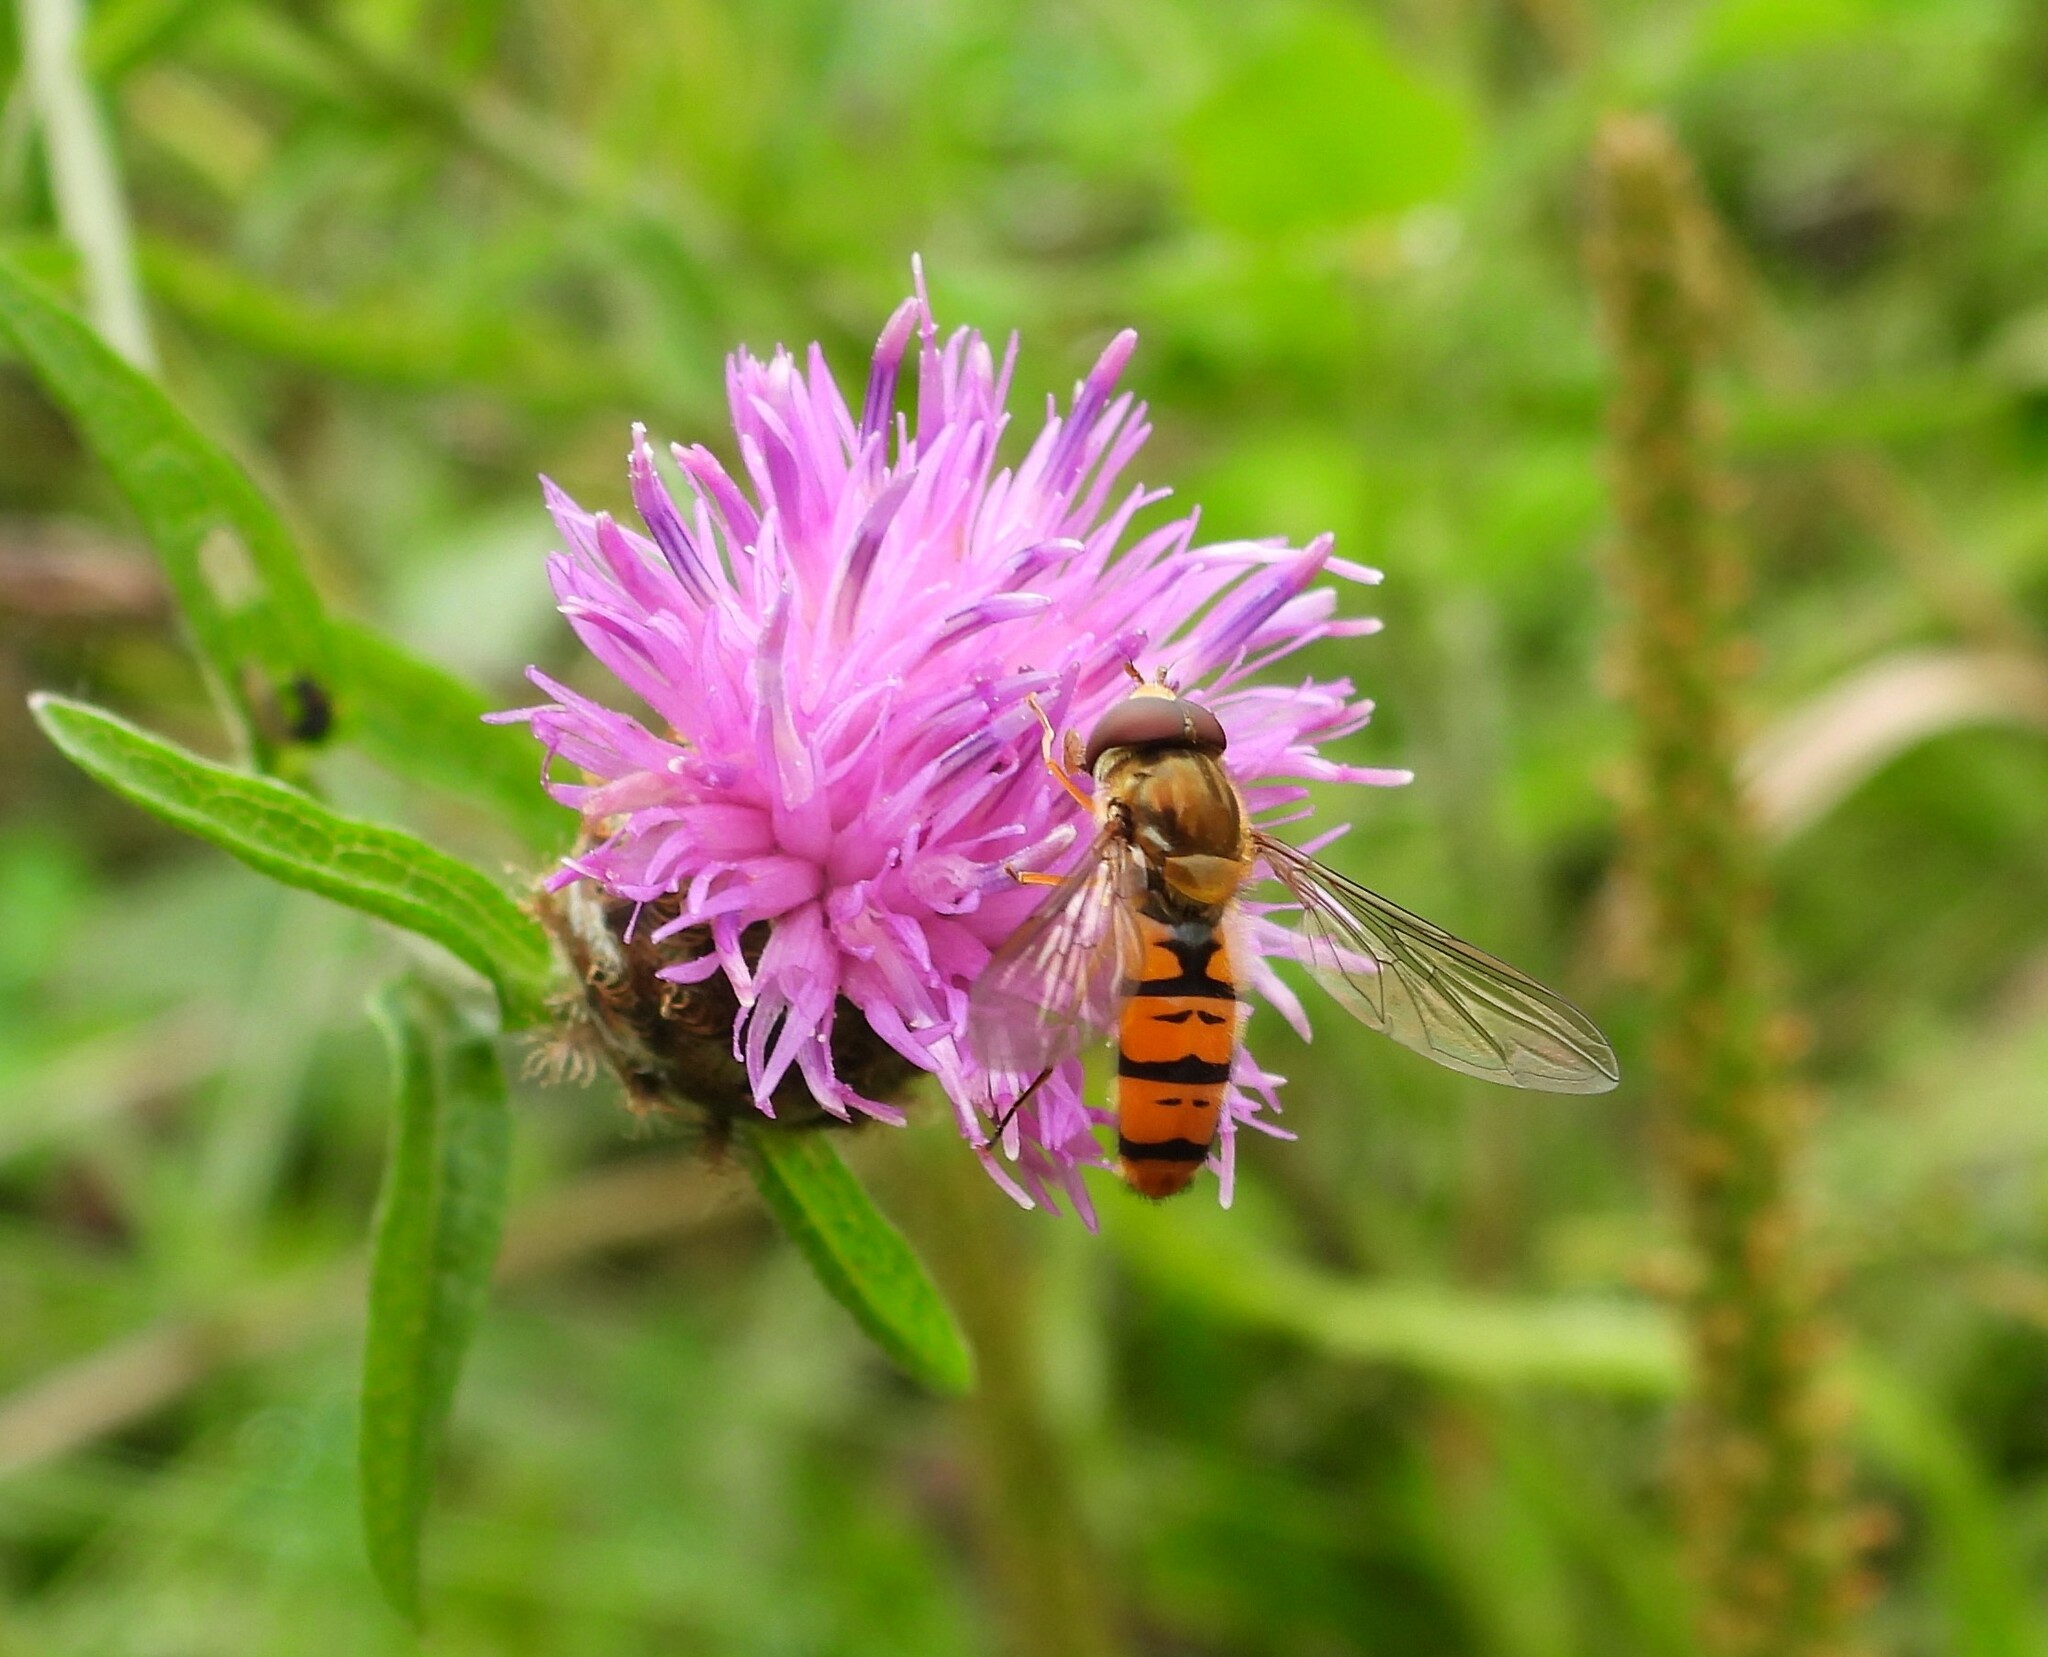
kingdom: Animalia
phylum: Arthropoda
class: Insecta
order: Diptera
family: Syrphidae
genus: Episyrphus
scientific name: Episyrphus balteatus
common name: Marmalade hoverfly
